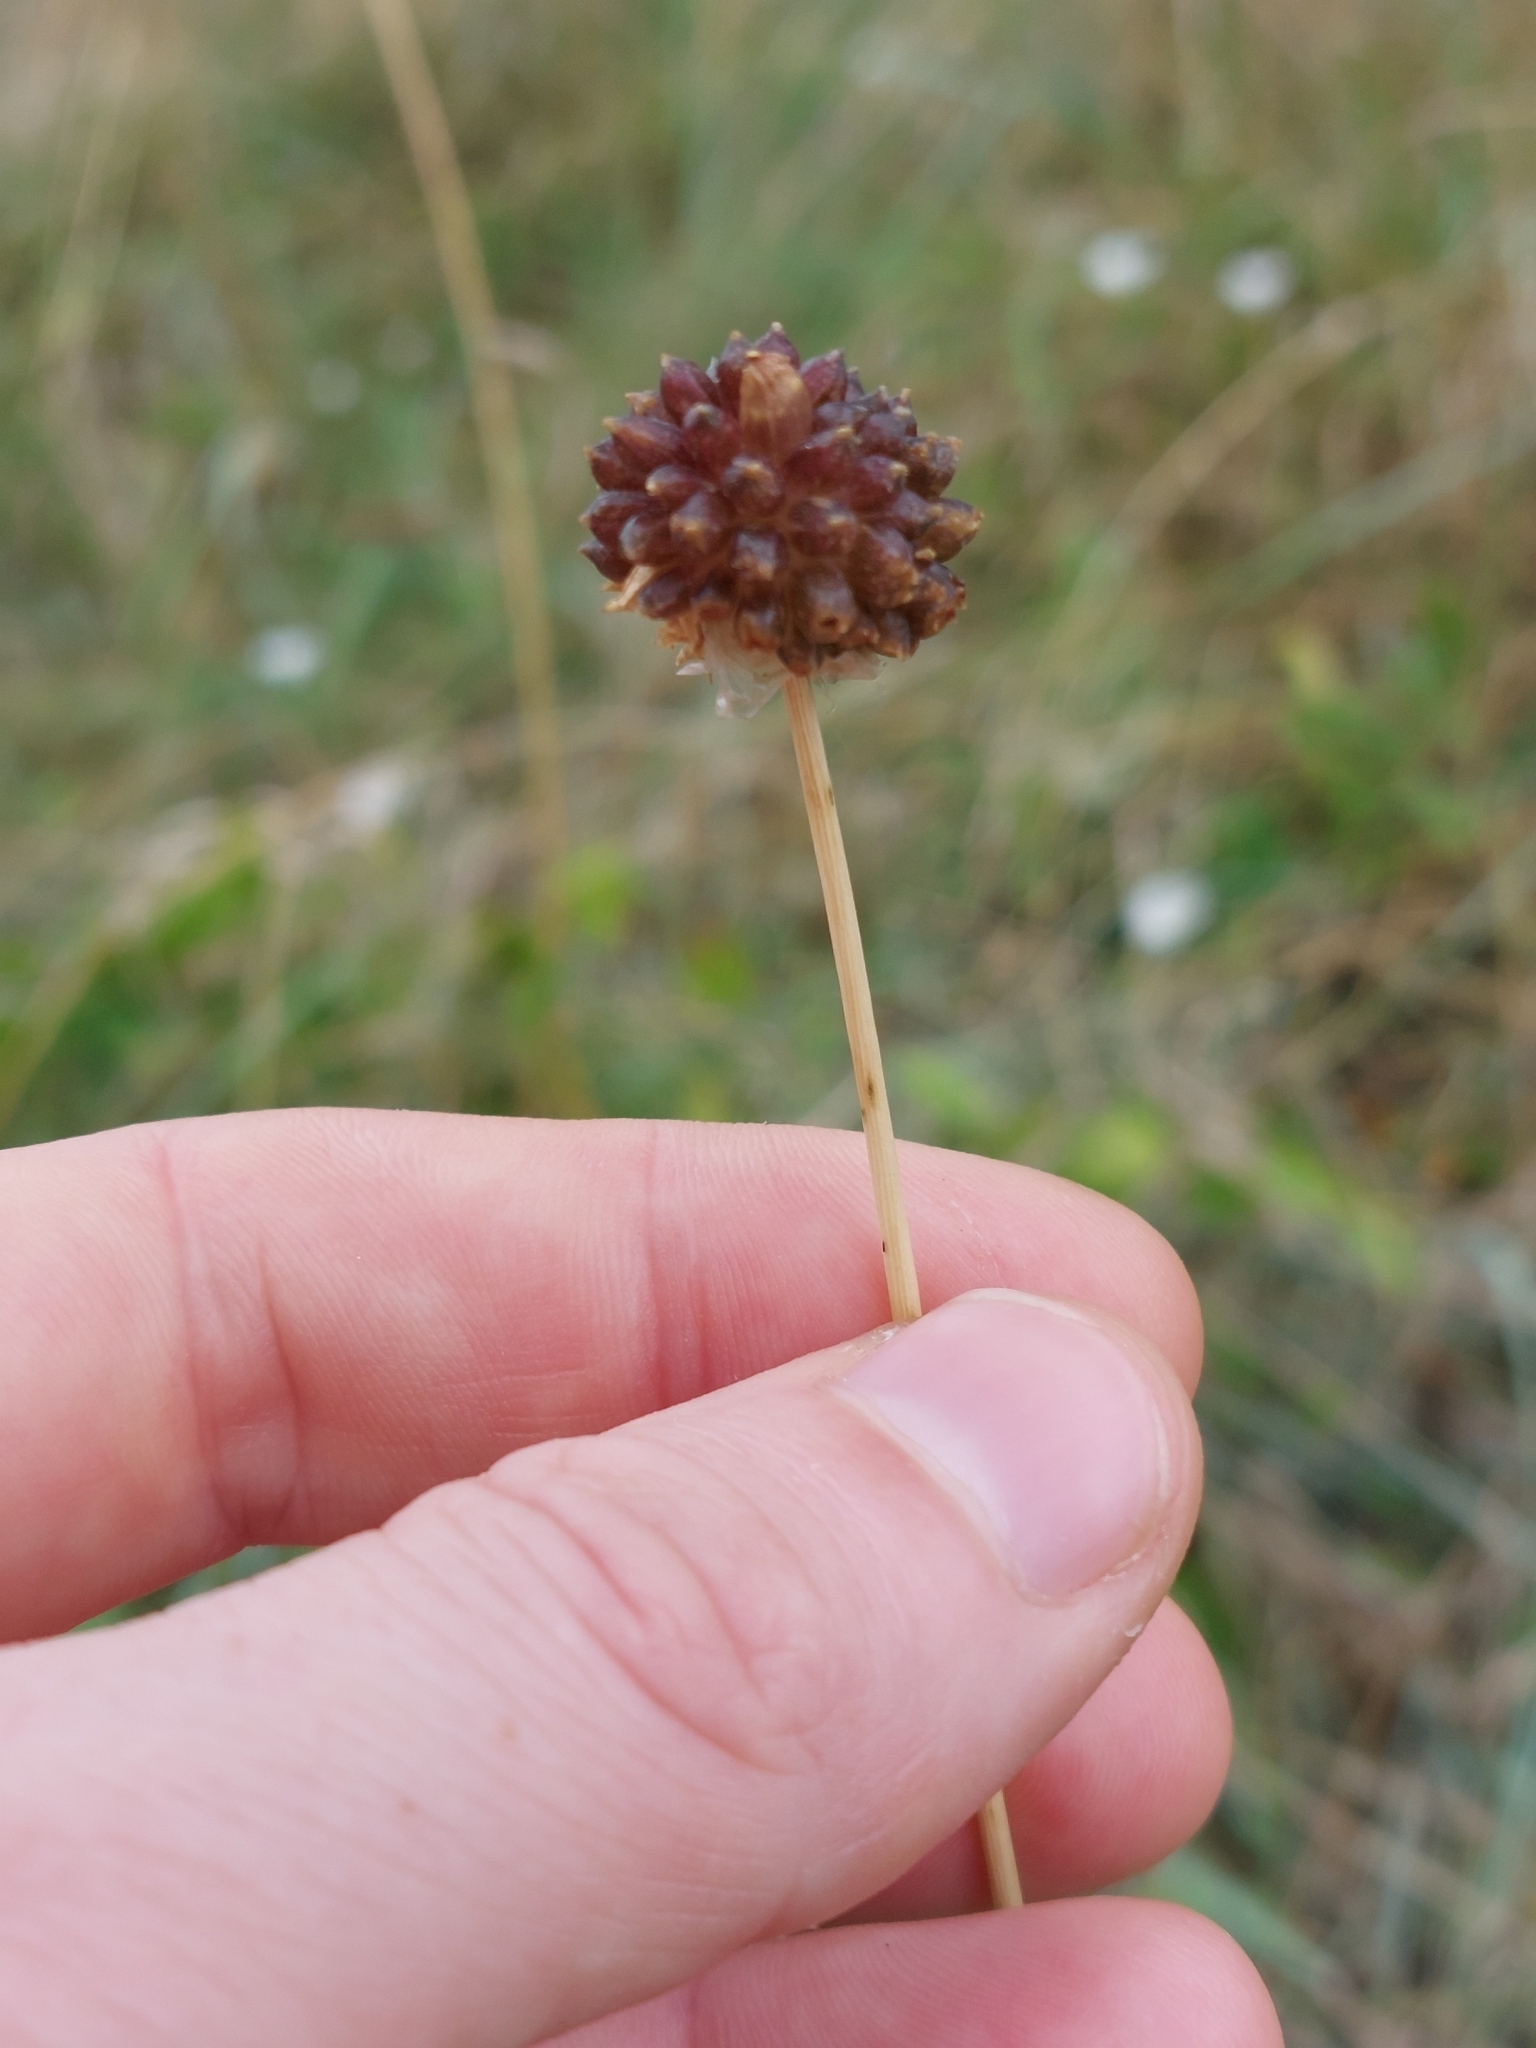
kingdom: Plantae
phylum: Tracheophyta
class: Liliopsida
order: Asparagales
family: Amaryllidaceae
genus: Allium
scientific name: Allium vineale
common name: Crow garlic
